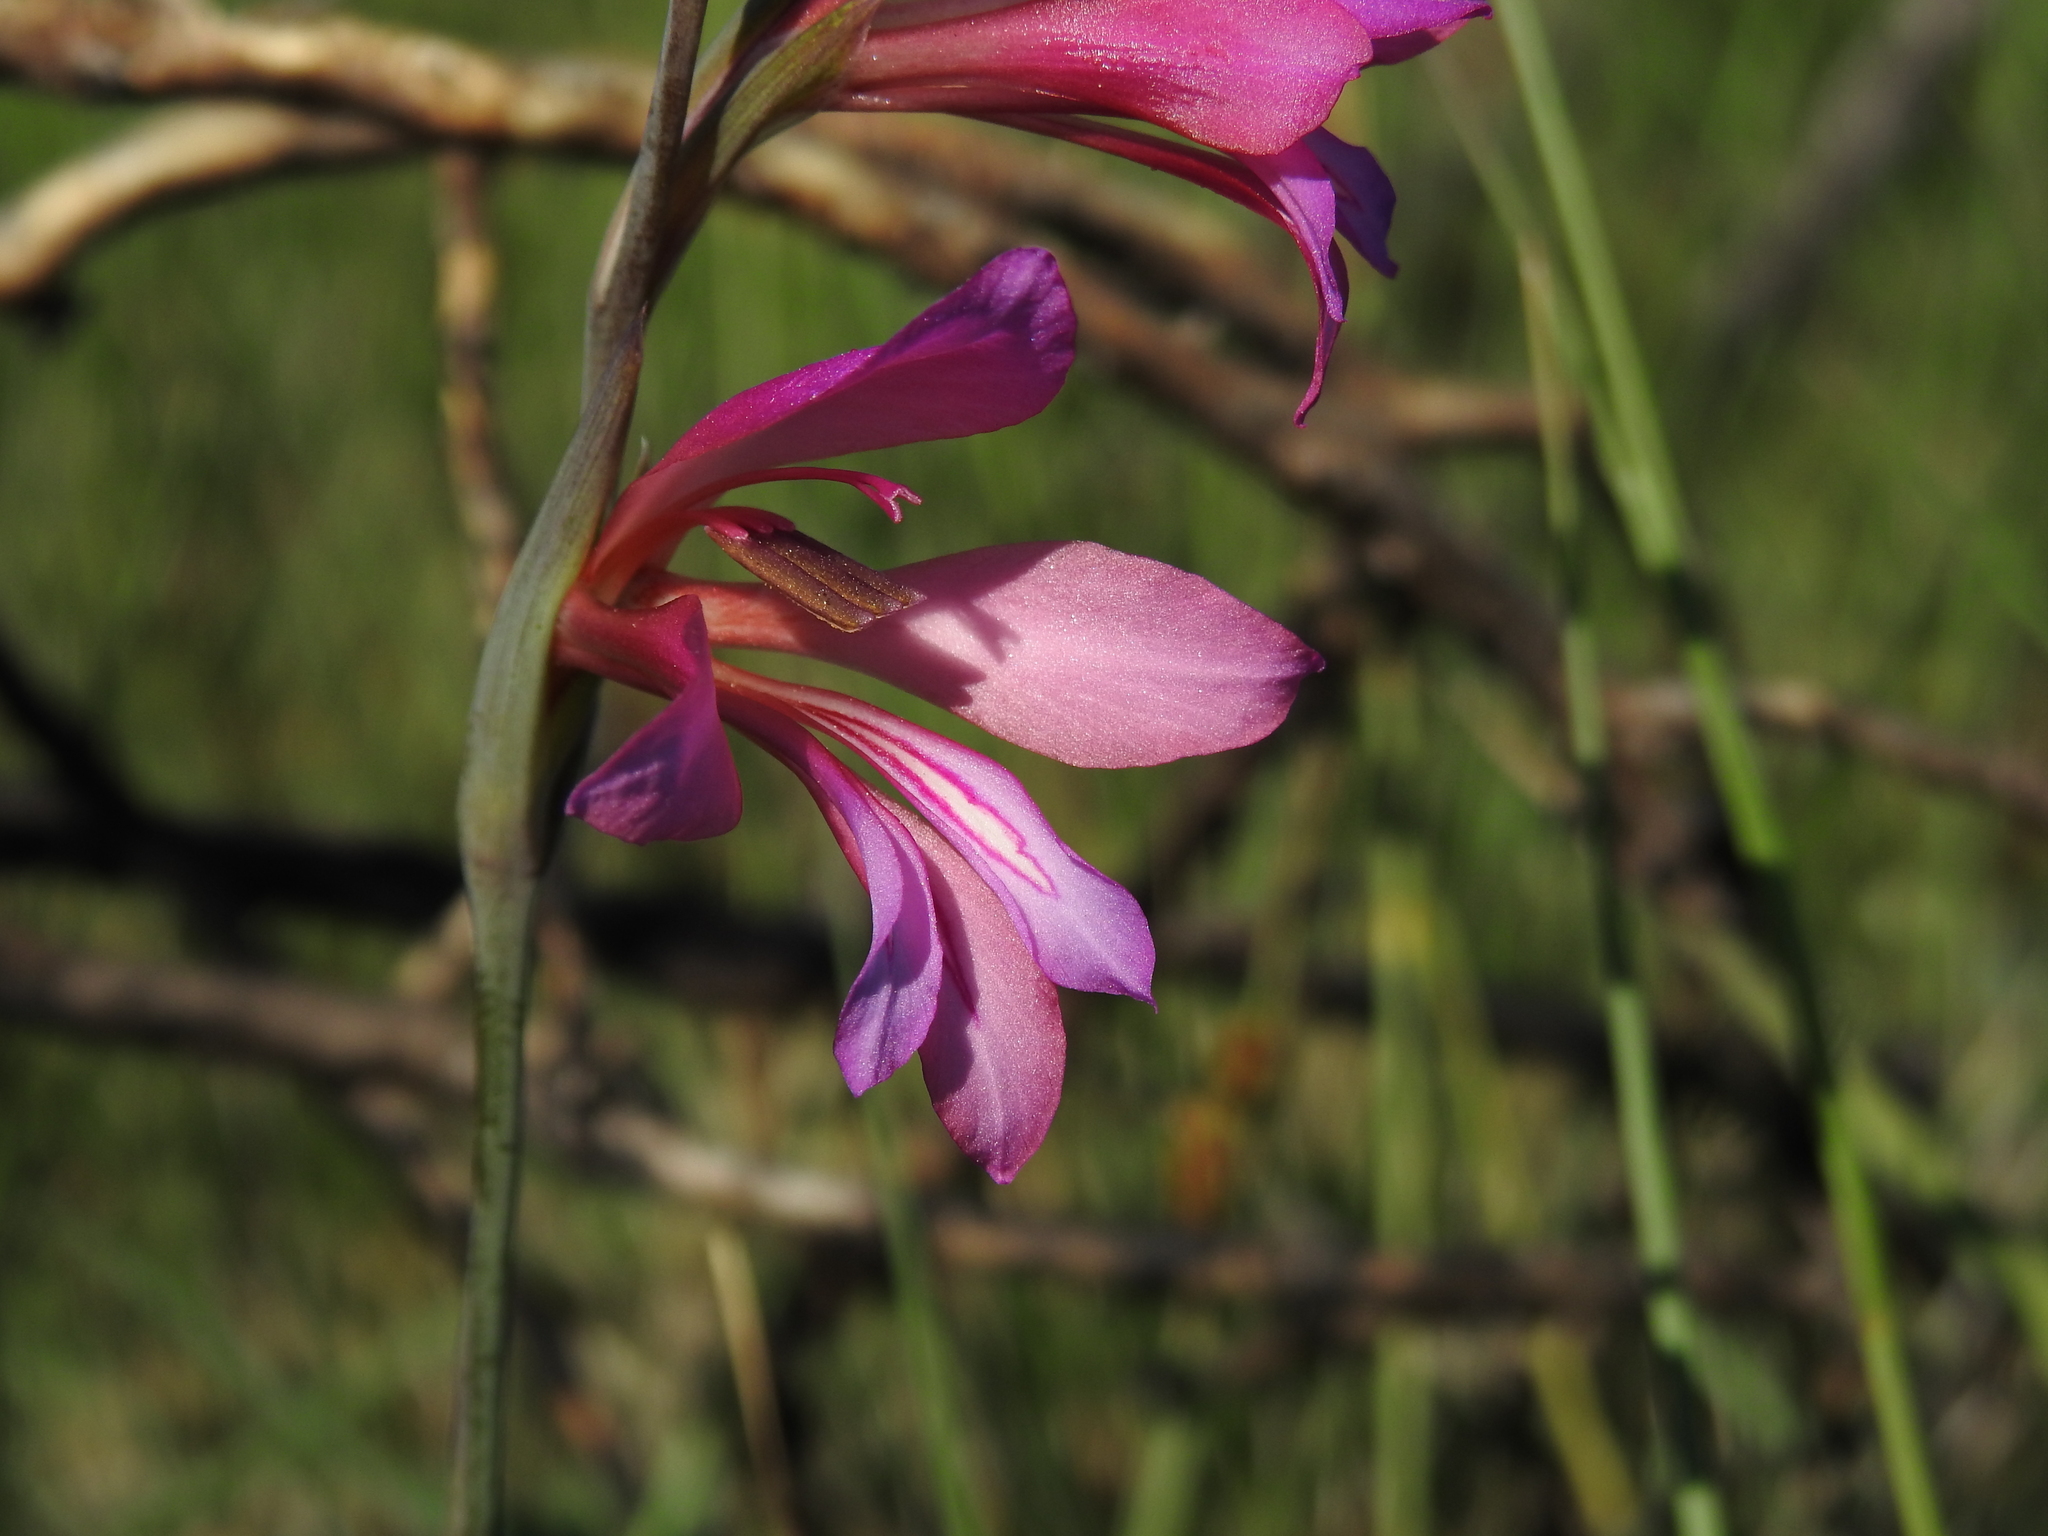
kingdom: Plantae
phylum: Tracheophyta
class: Liliopsida
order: Asparagales
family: Iridaceae
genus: Gladiolus
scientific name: Gladiolus dubius
